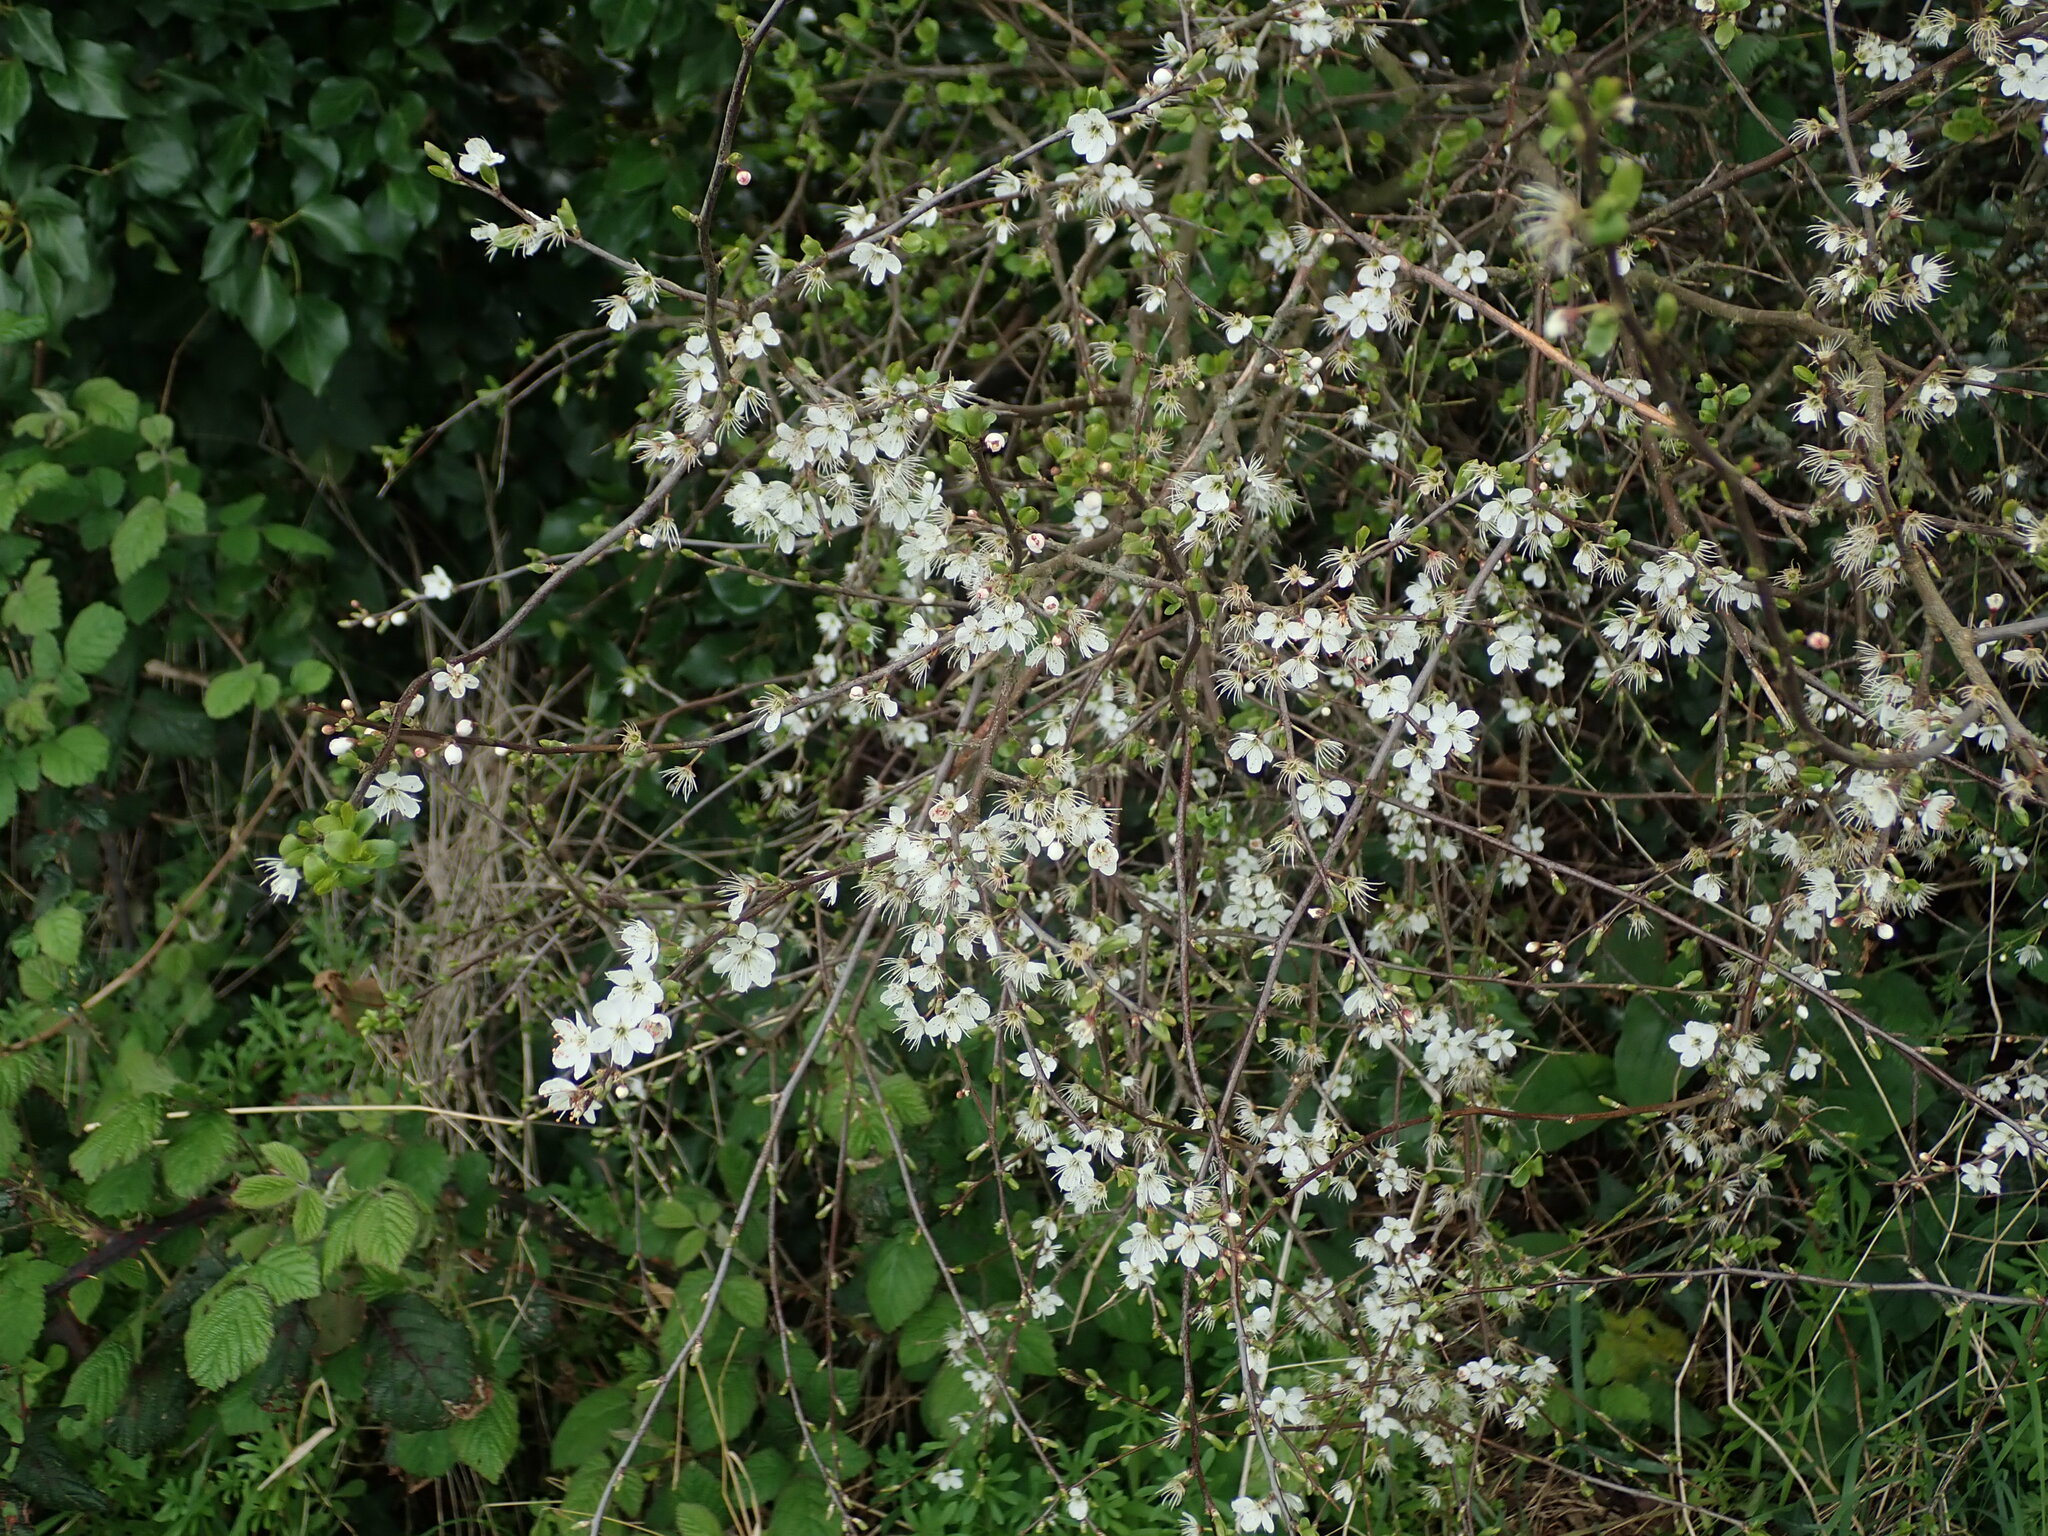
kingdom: Plantae
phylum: Tracheophyta
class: Magnoliopsida
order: Rosales
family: Rosaceae
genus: Prunus
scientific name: Prunus spinosa
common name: Blackthorn
